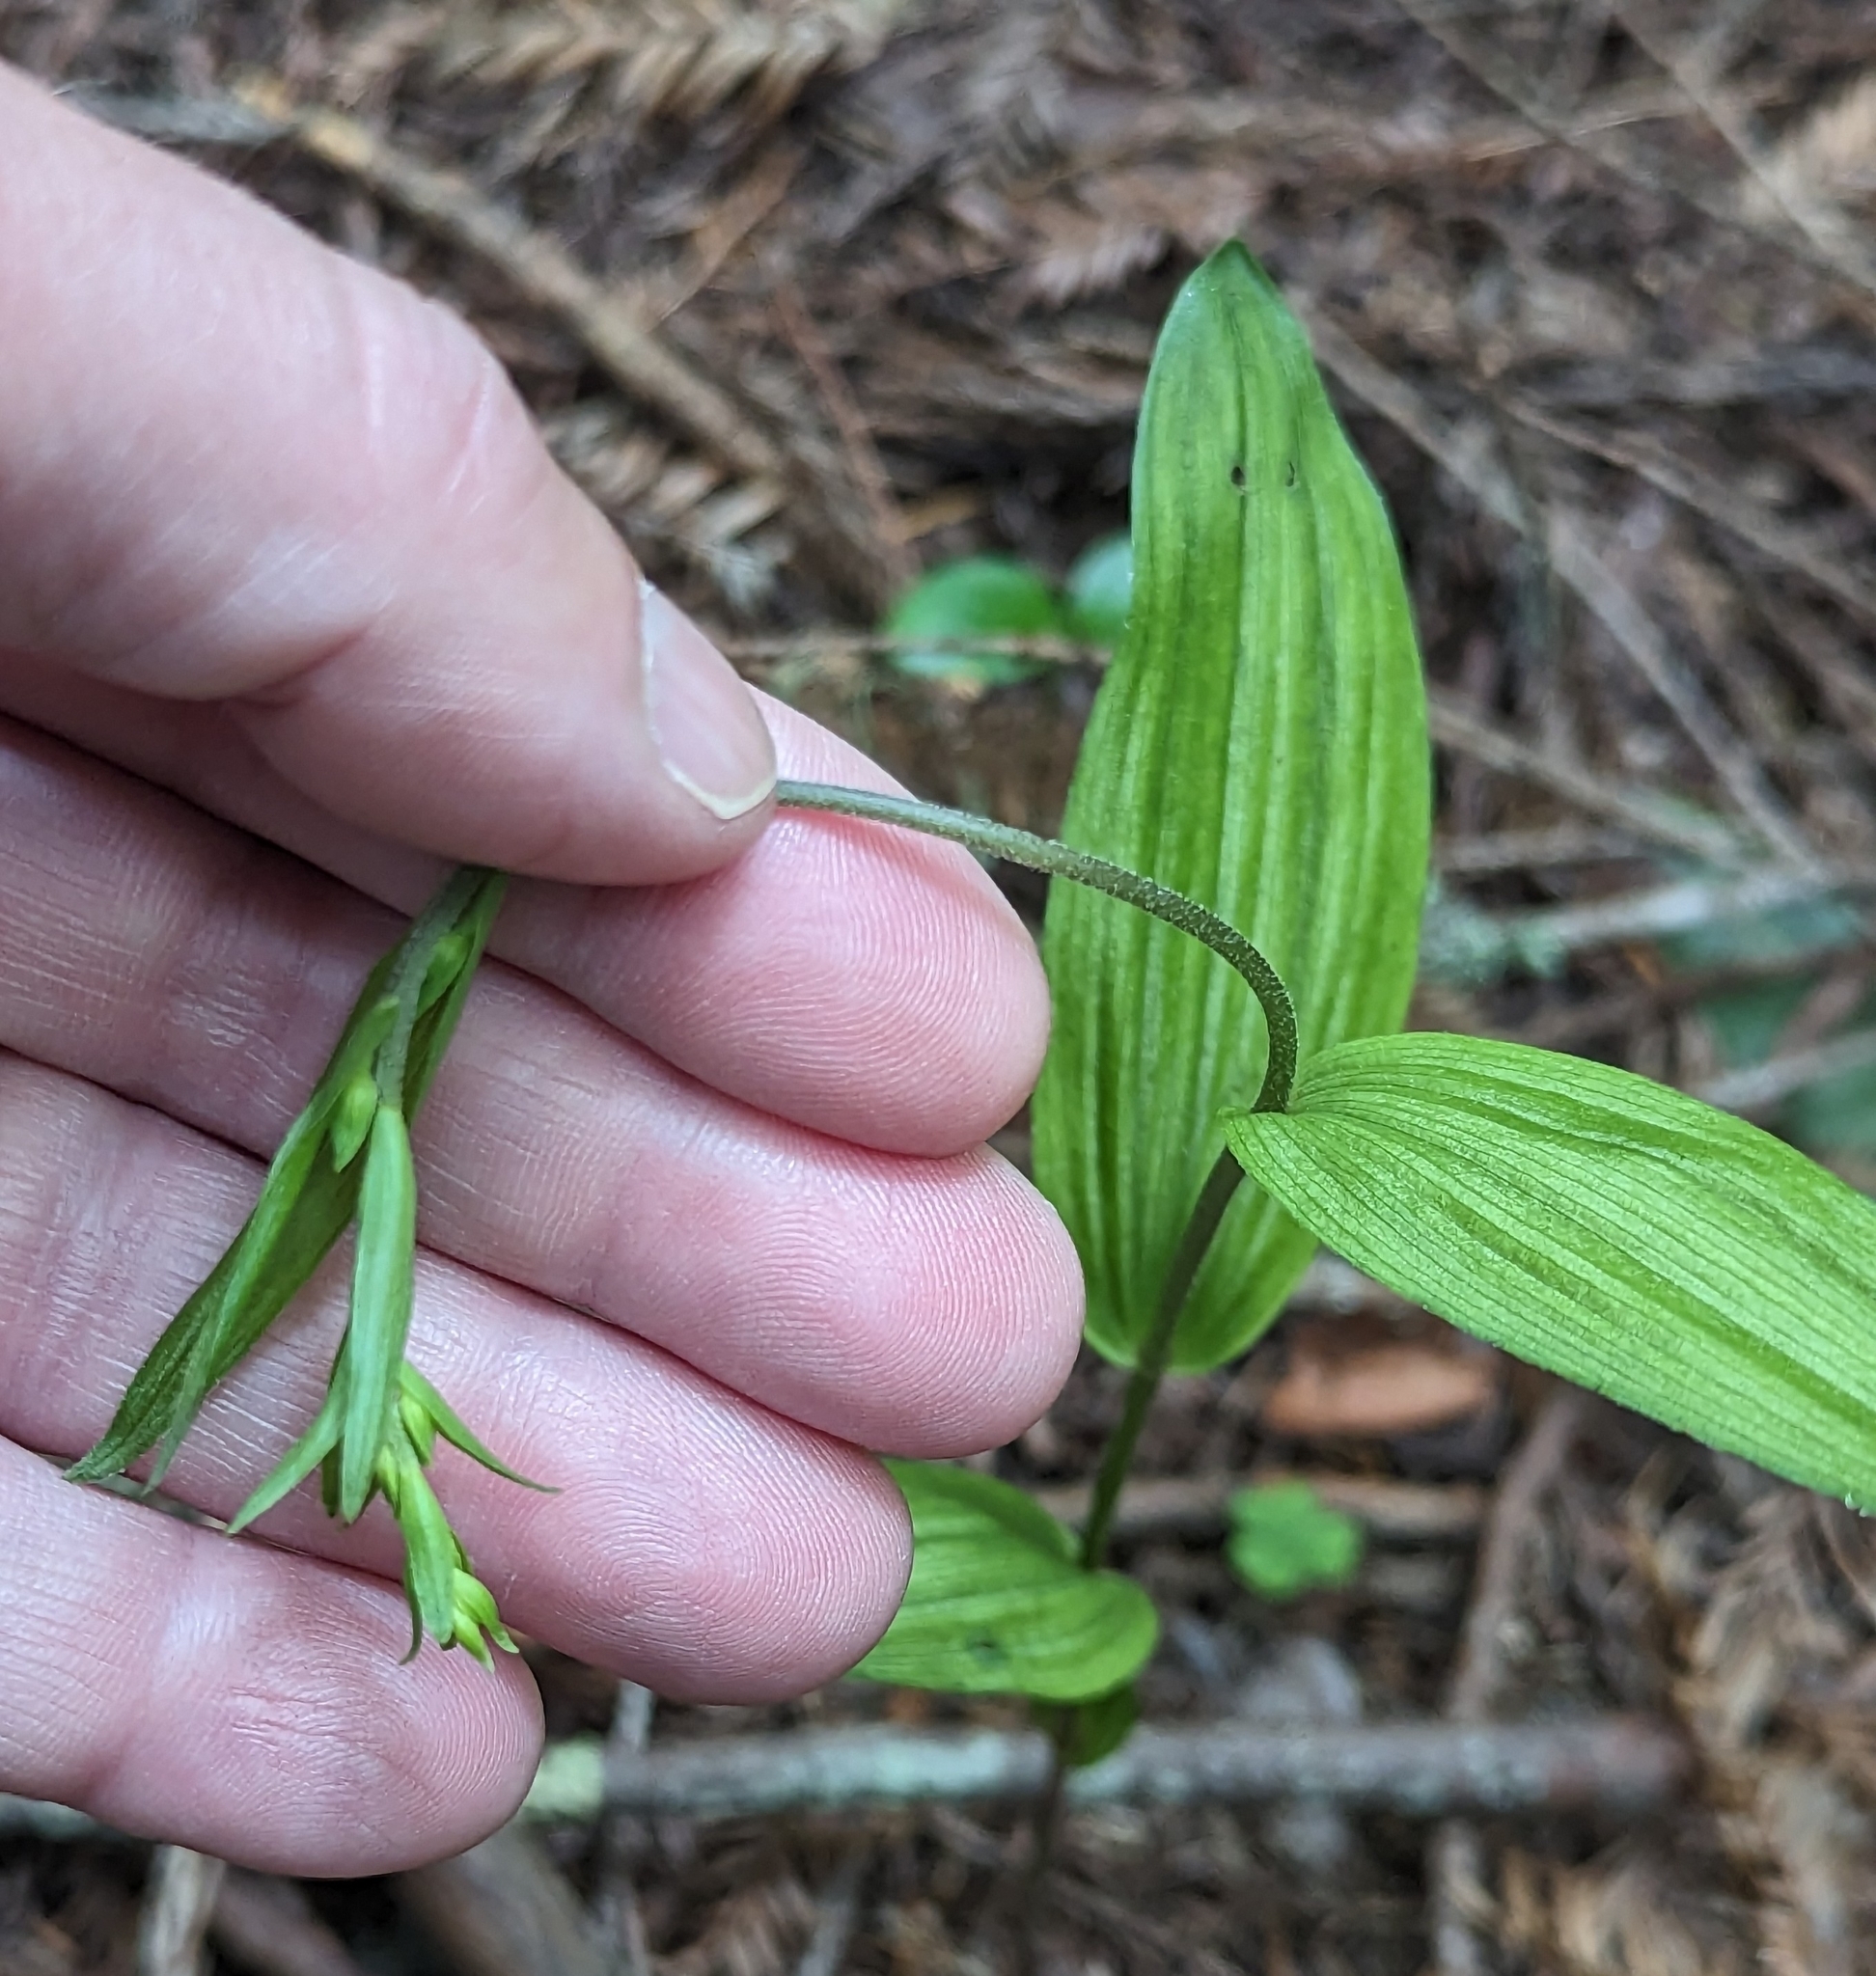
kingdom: Plantae
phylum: Tracheophyta
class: Liliopsida
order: Asparagales
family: Orchidaceae
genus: Epipactis
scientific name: Epipactis helleborine
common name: Broad-leaved helleborine
